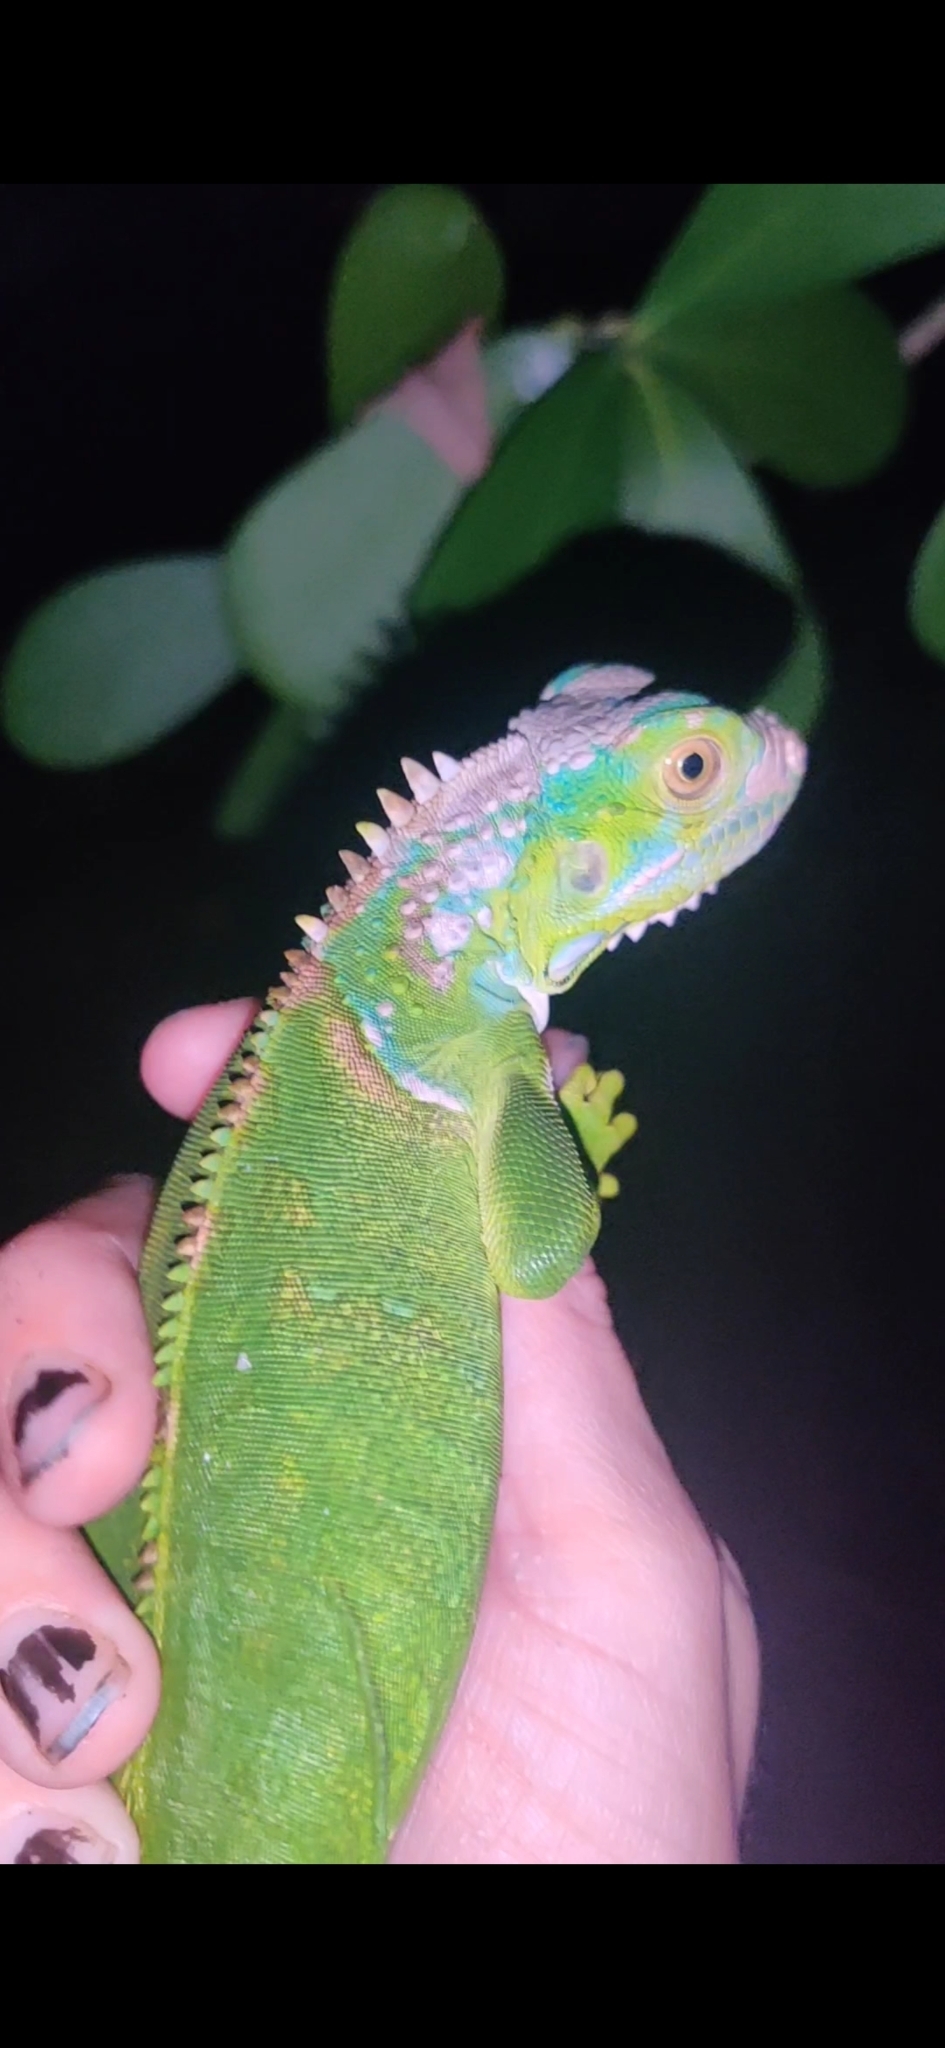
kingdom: Animalia
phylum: Chordata
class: Squamata
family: Iguanidae
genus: Iguana
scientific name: Iguana iguana
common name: Green iguana
